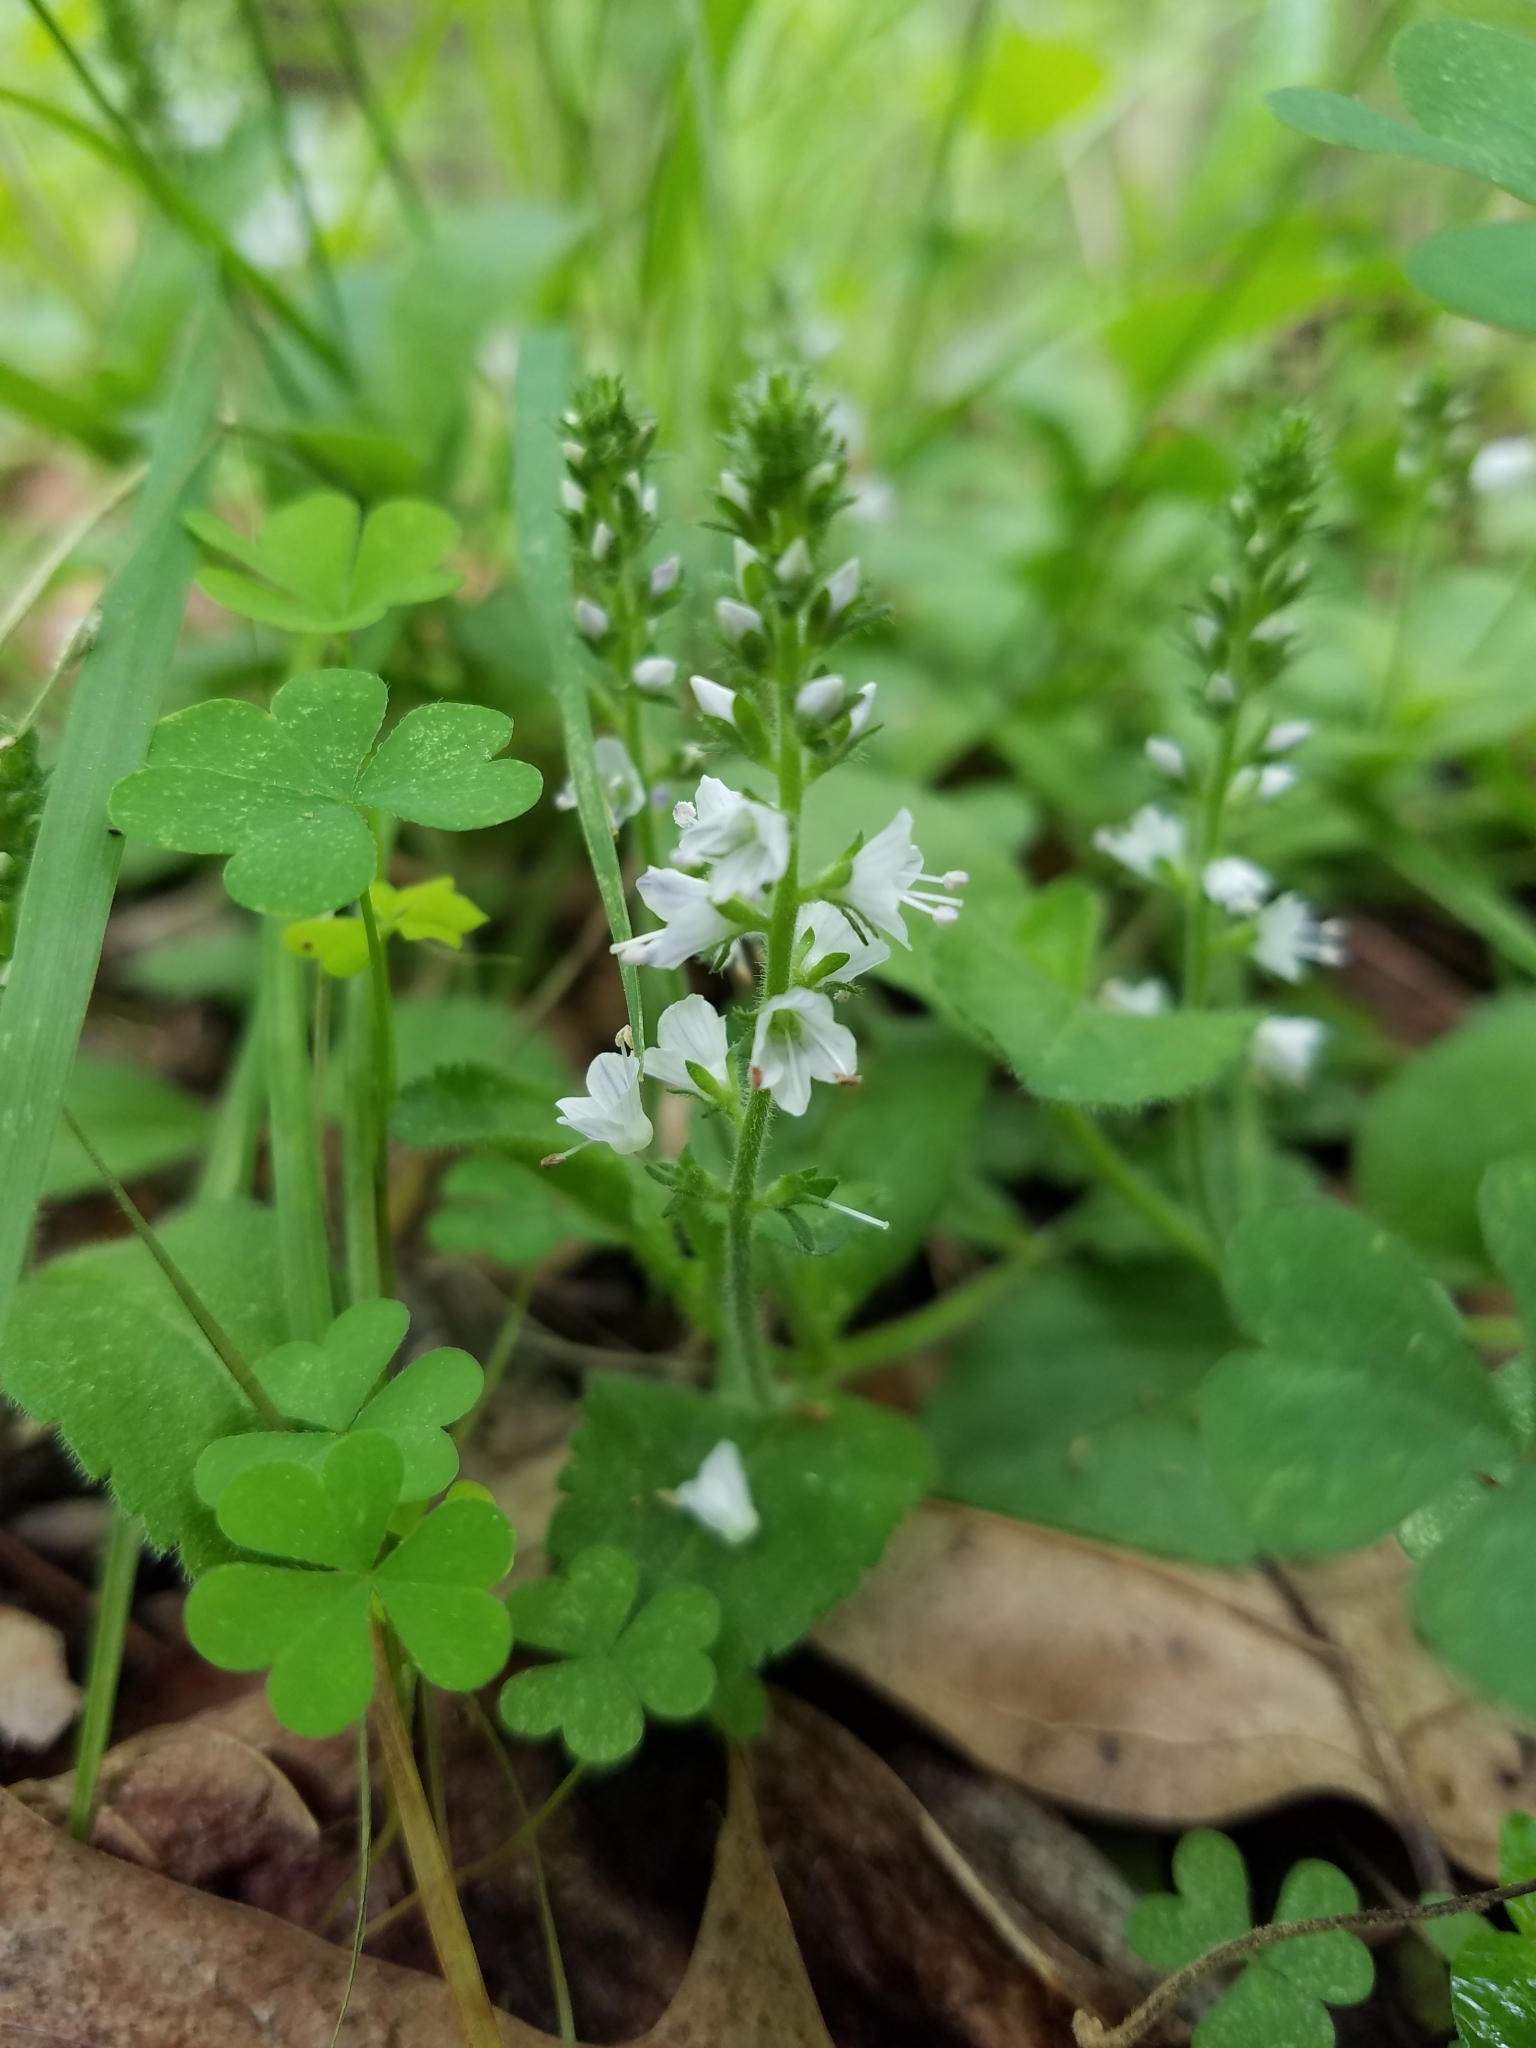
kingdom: Plantae
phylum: Tracheophyta
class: Magnoliopsida
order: Lamiales
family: Plantaginaceae
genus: Veronica
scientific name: Veronica officinalis
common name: Common speedwell
